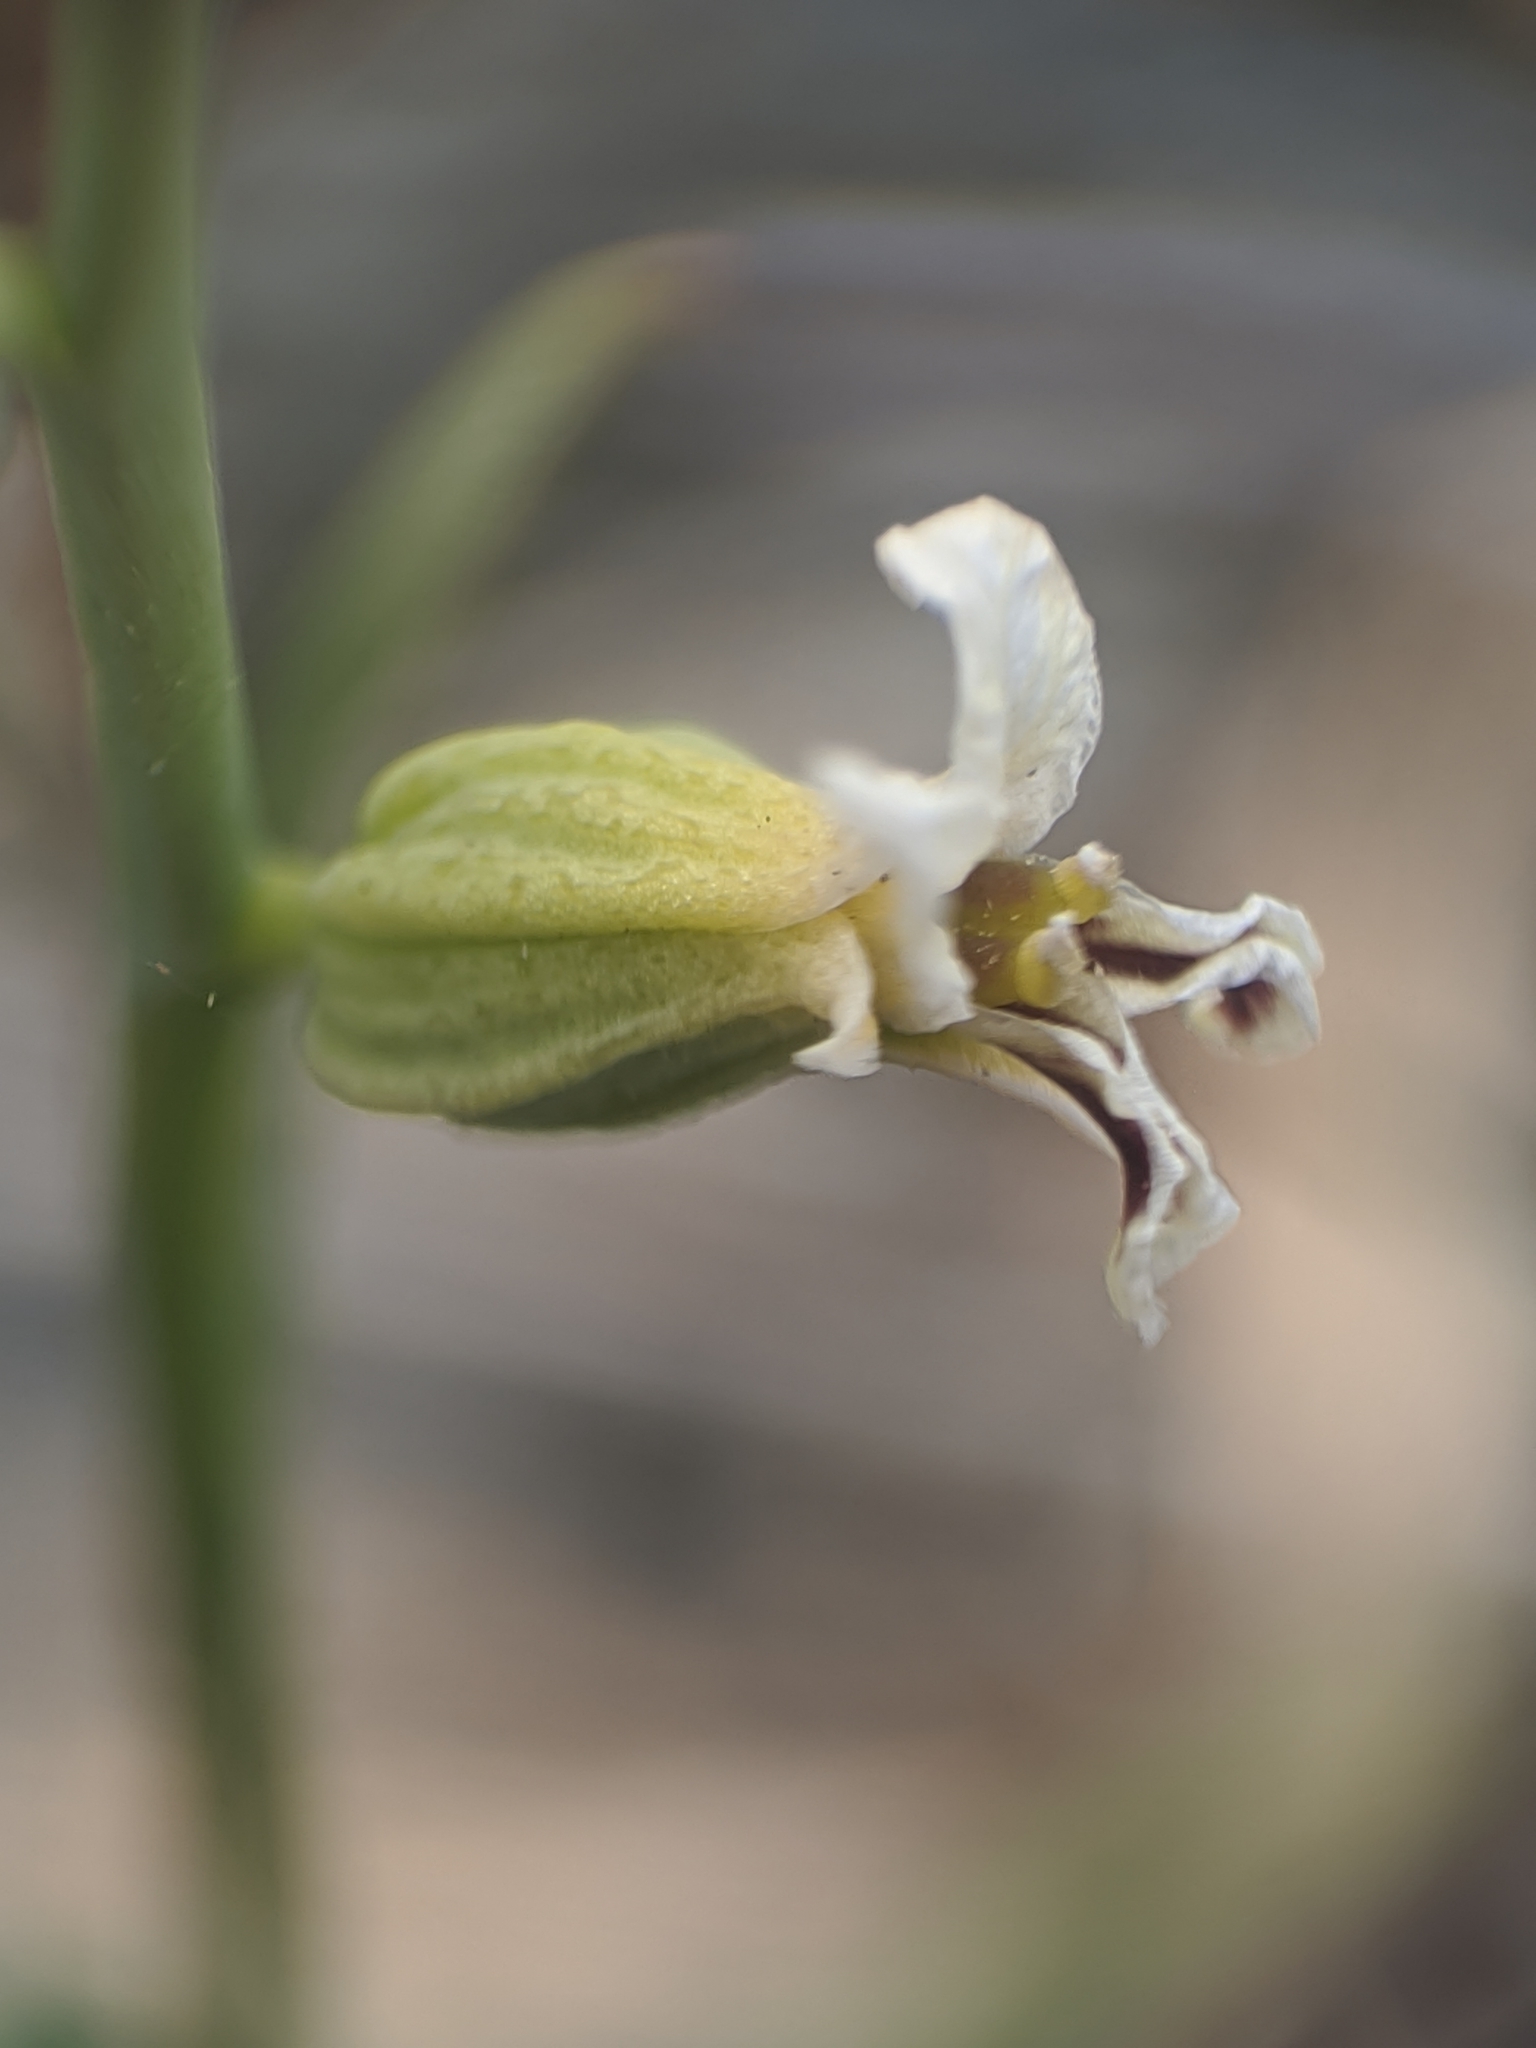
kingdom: Plantae
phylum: Tracheophyta
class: Magnoliopsida
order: Brassicales
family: Brassicaceae
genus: Streptanthus
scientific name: Streptanthus barbiger
